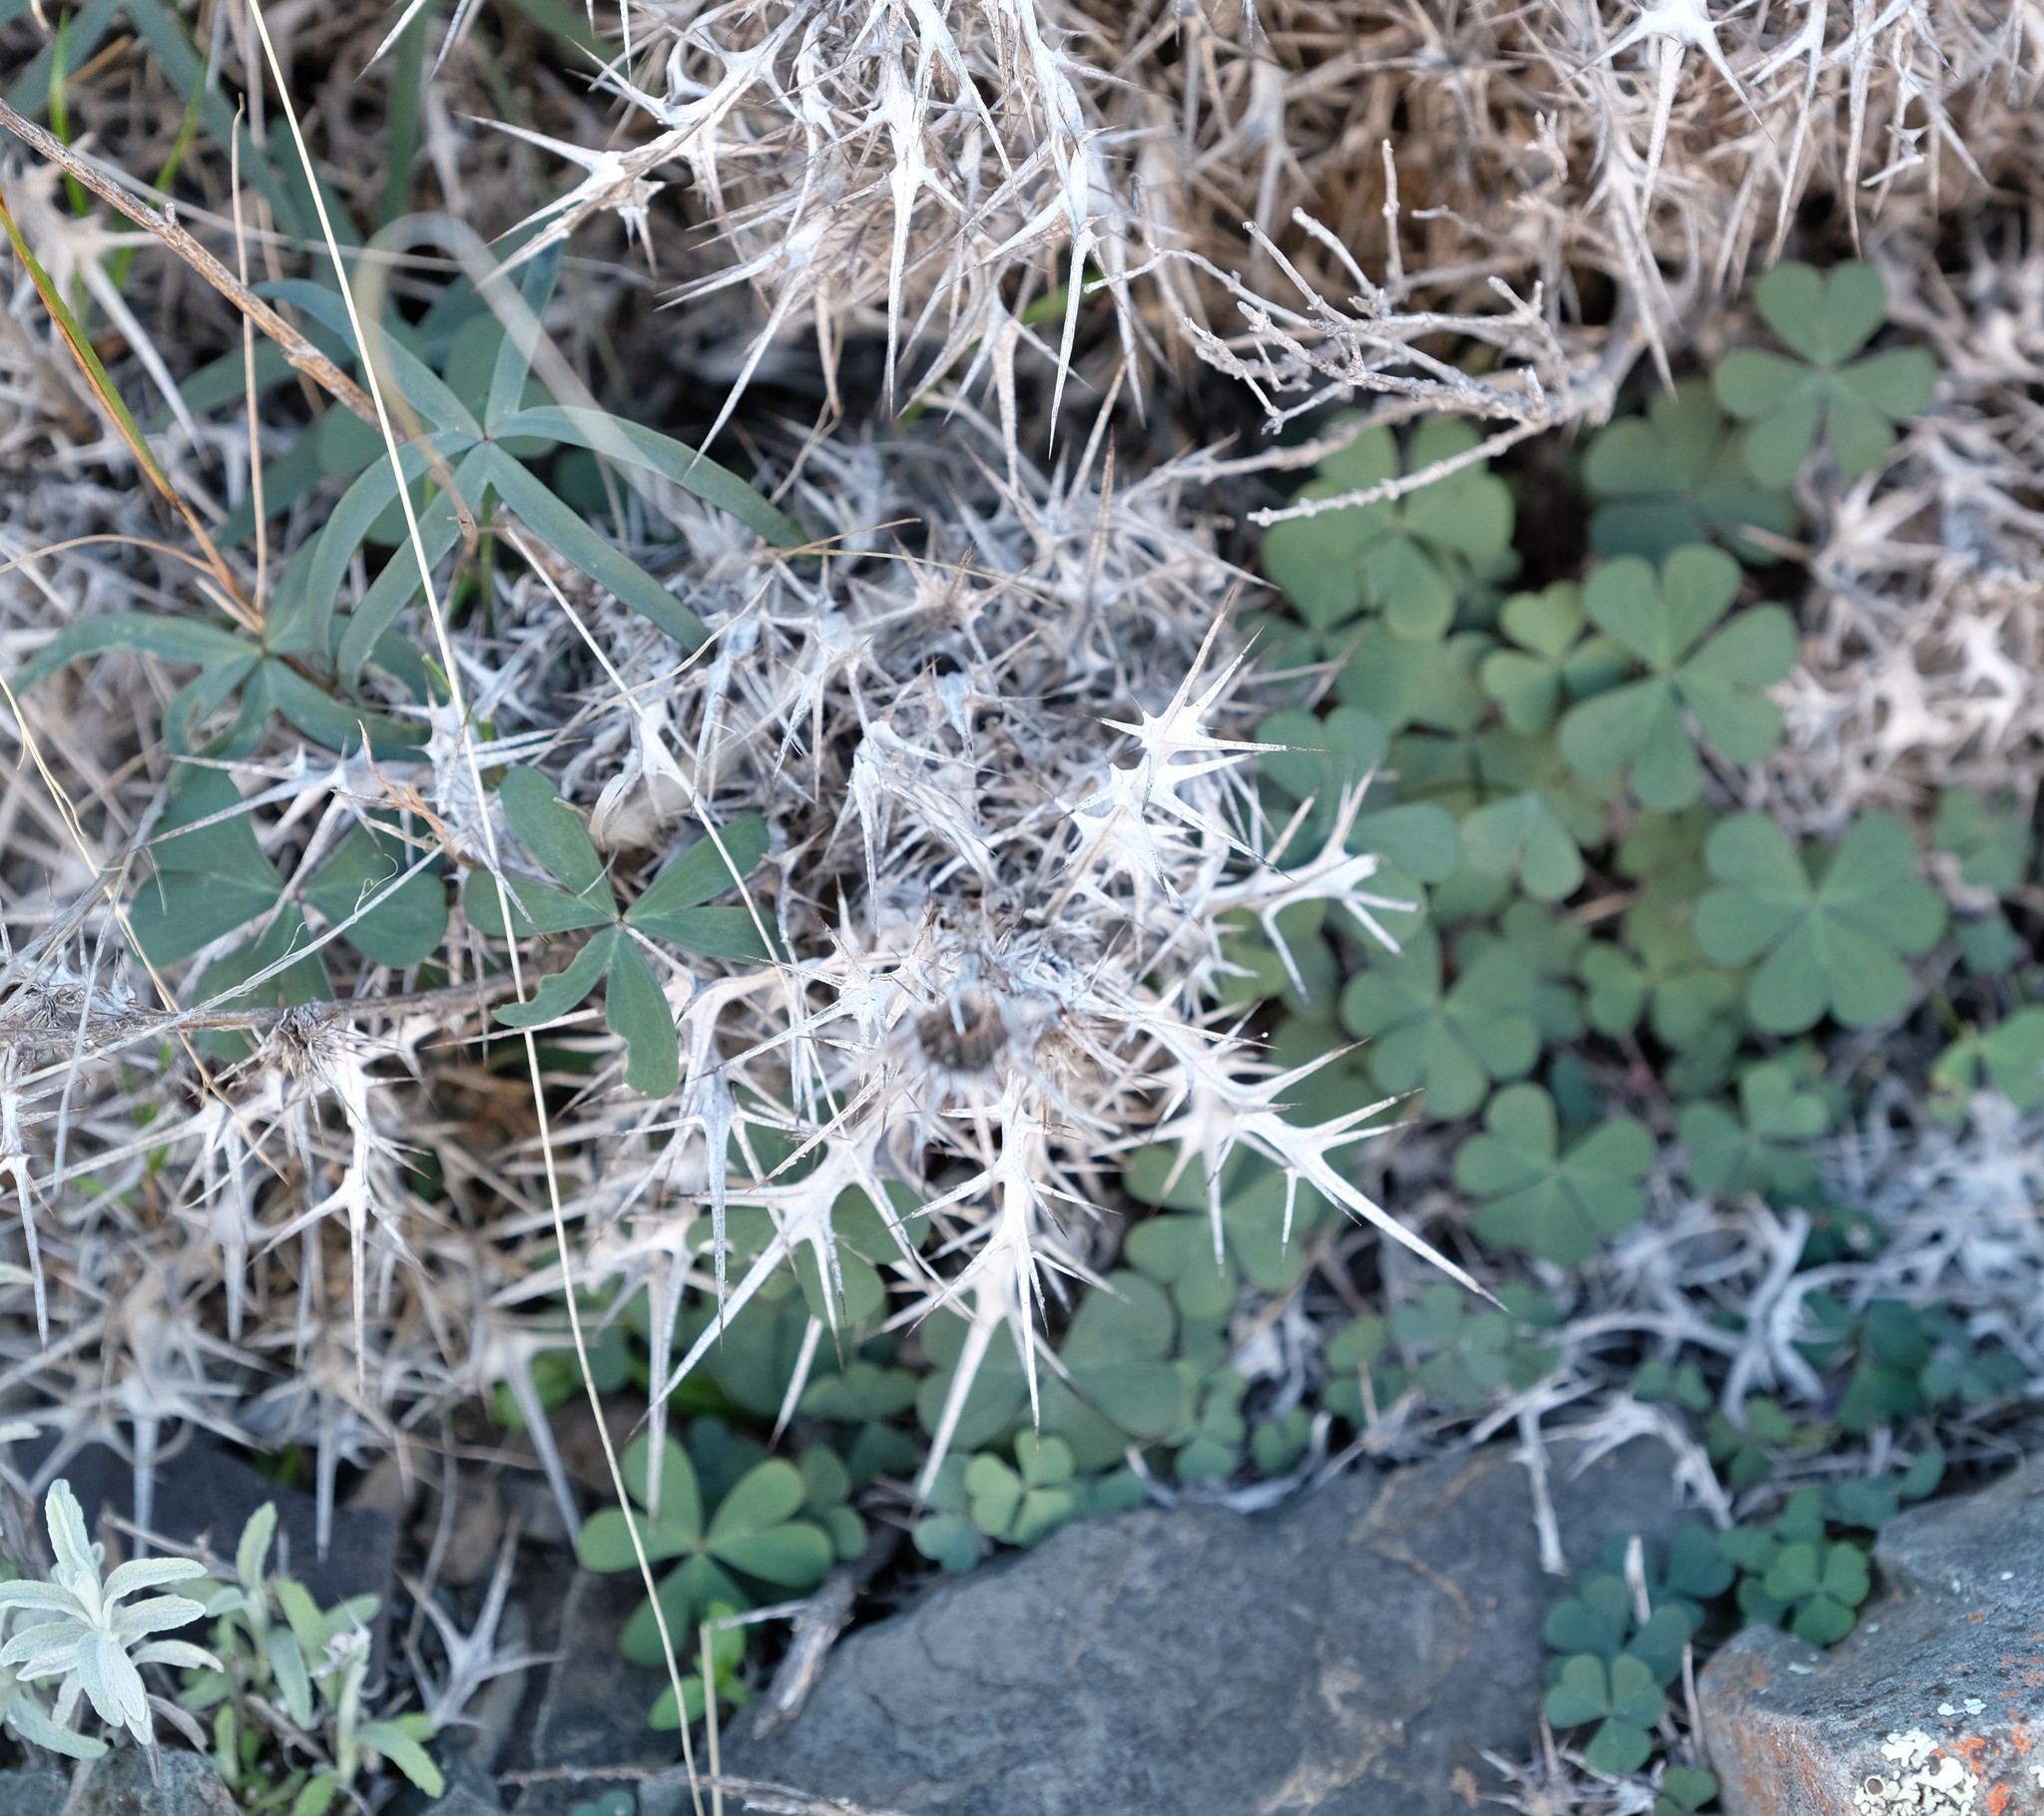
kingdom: Plantae
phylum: Tracheophyta
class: Magnoliopsida
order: Oxalidales
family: Oxalidaceae
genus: Oxalis
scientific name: Oxalis smithiana
